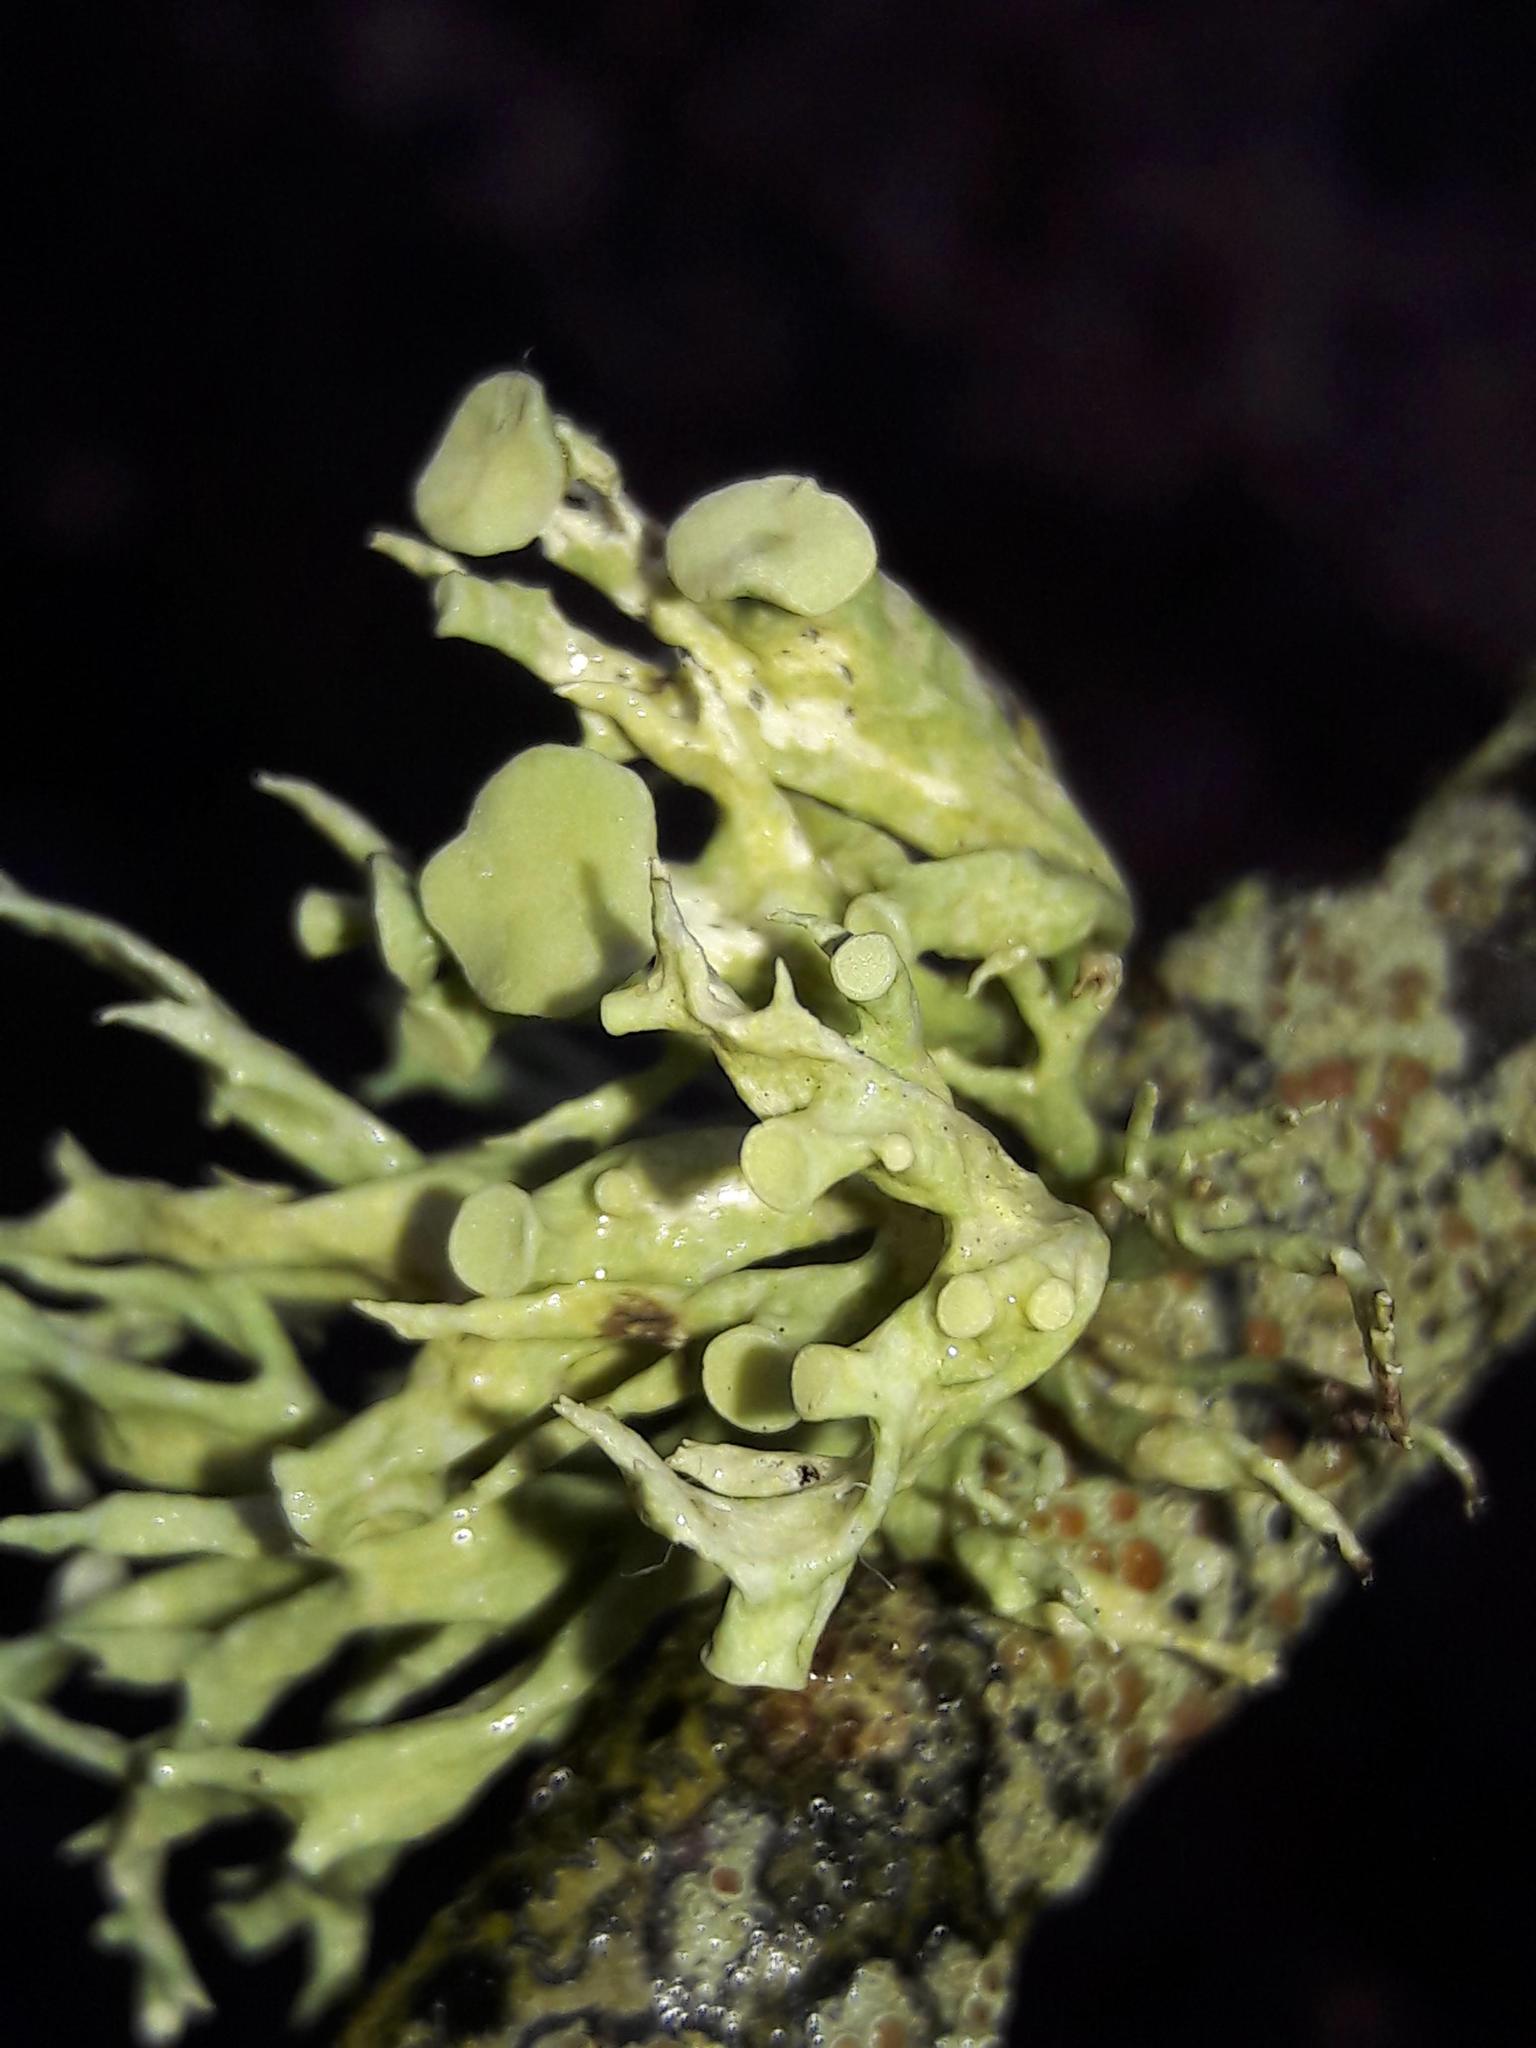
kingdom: Fungi
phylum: Ascomycota
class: Lecanoromycetes
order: Lecanorales
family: Ramalinaceae
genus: Ramalina
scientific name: Ramalina fastigiata
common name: Dotted ribbon lichen
